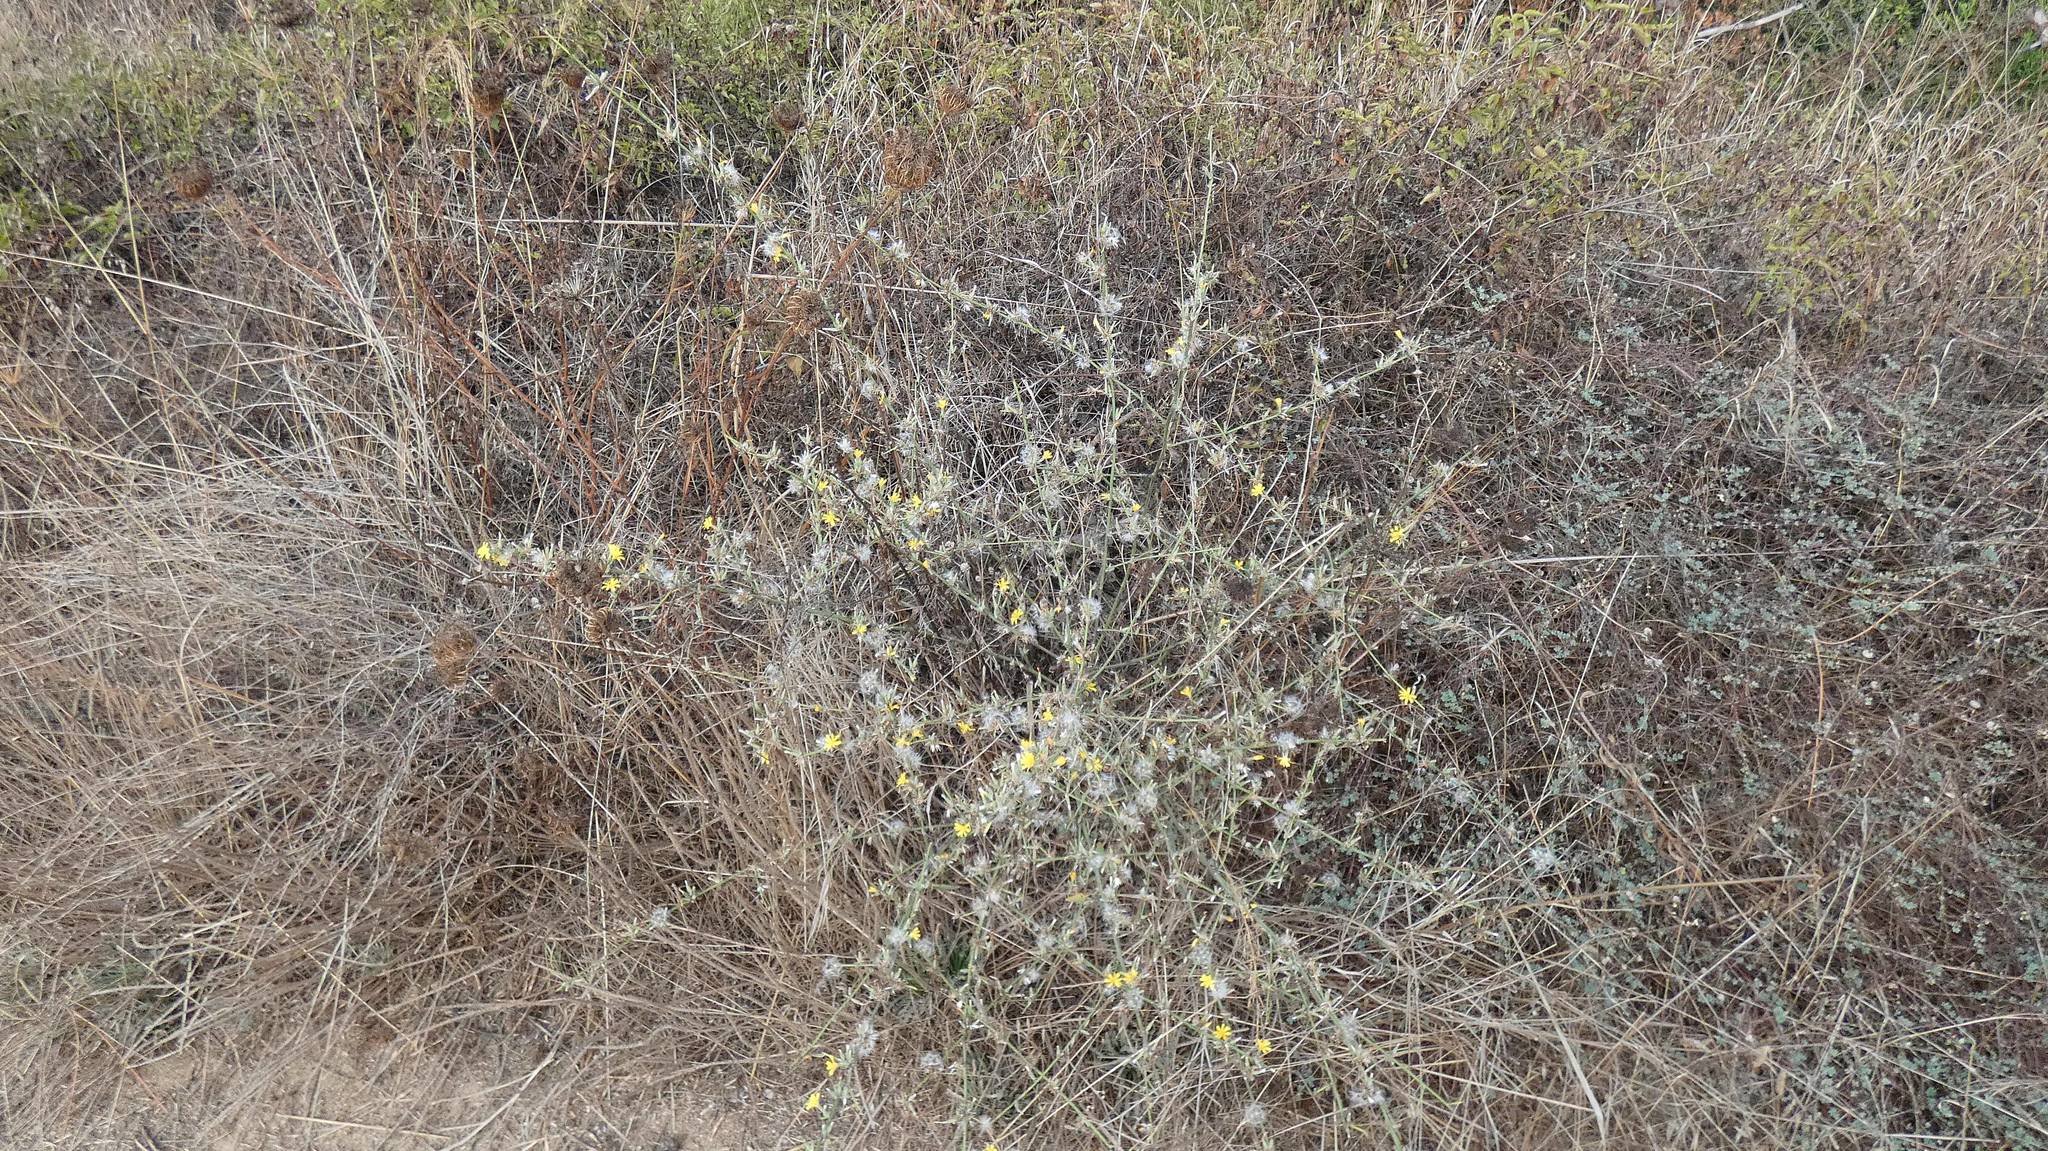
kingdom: Plantae
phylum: Tracheophyta
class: Magnoliopsida
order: Asterales
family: Asteraceae
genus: Chondrilla
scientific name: Chondrilla juncea
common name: Skeleton weed
